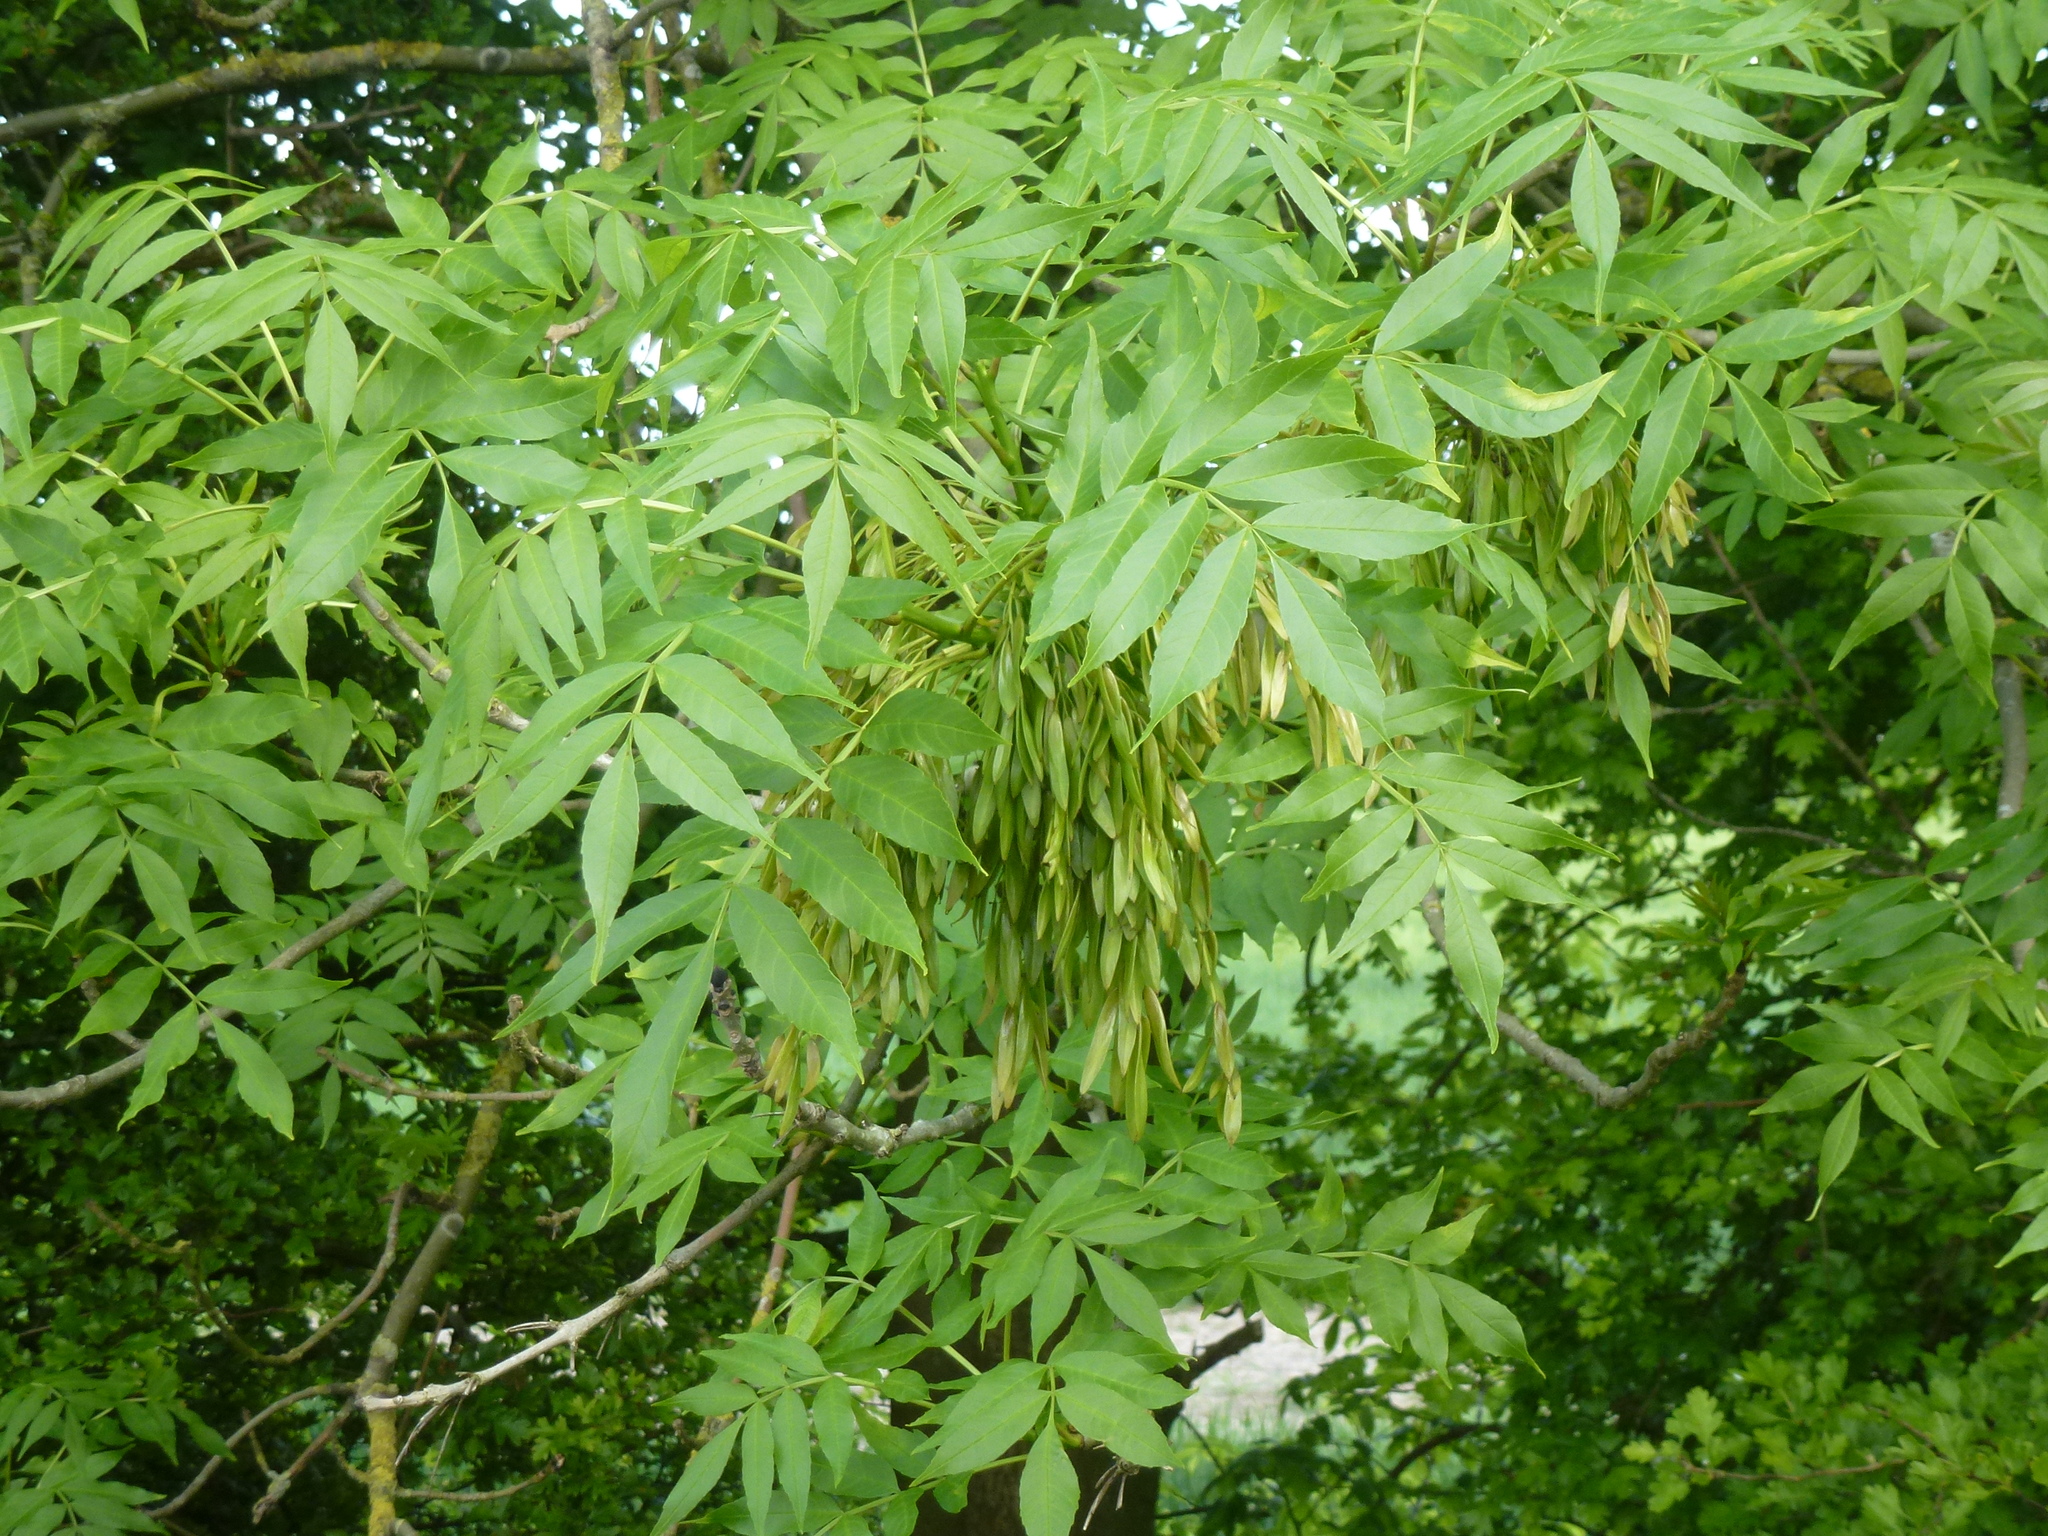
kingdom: Plantae
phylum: Tracheophyta
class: Magnoliopsida
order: Lamiales
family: Oleaceae
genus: Fraxinus
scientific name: Fraxinus excelsior
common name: European ash
